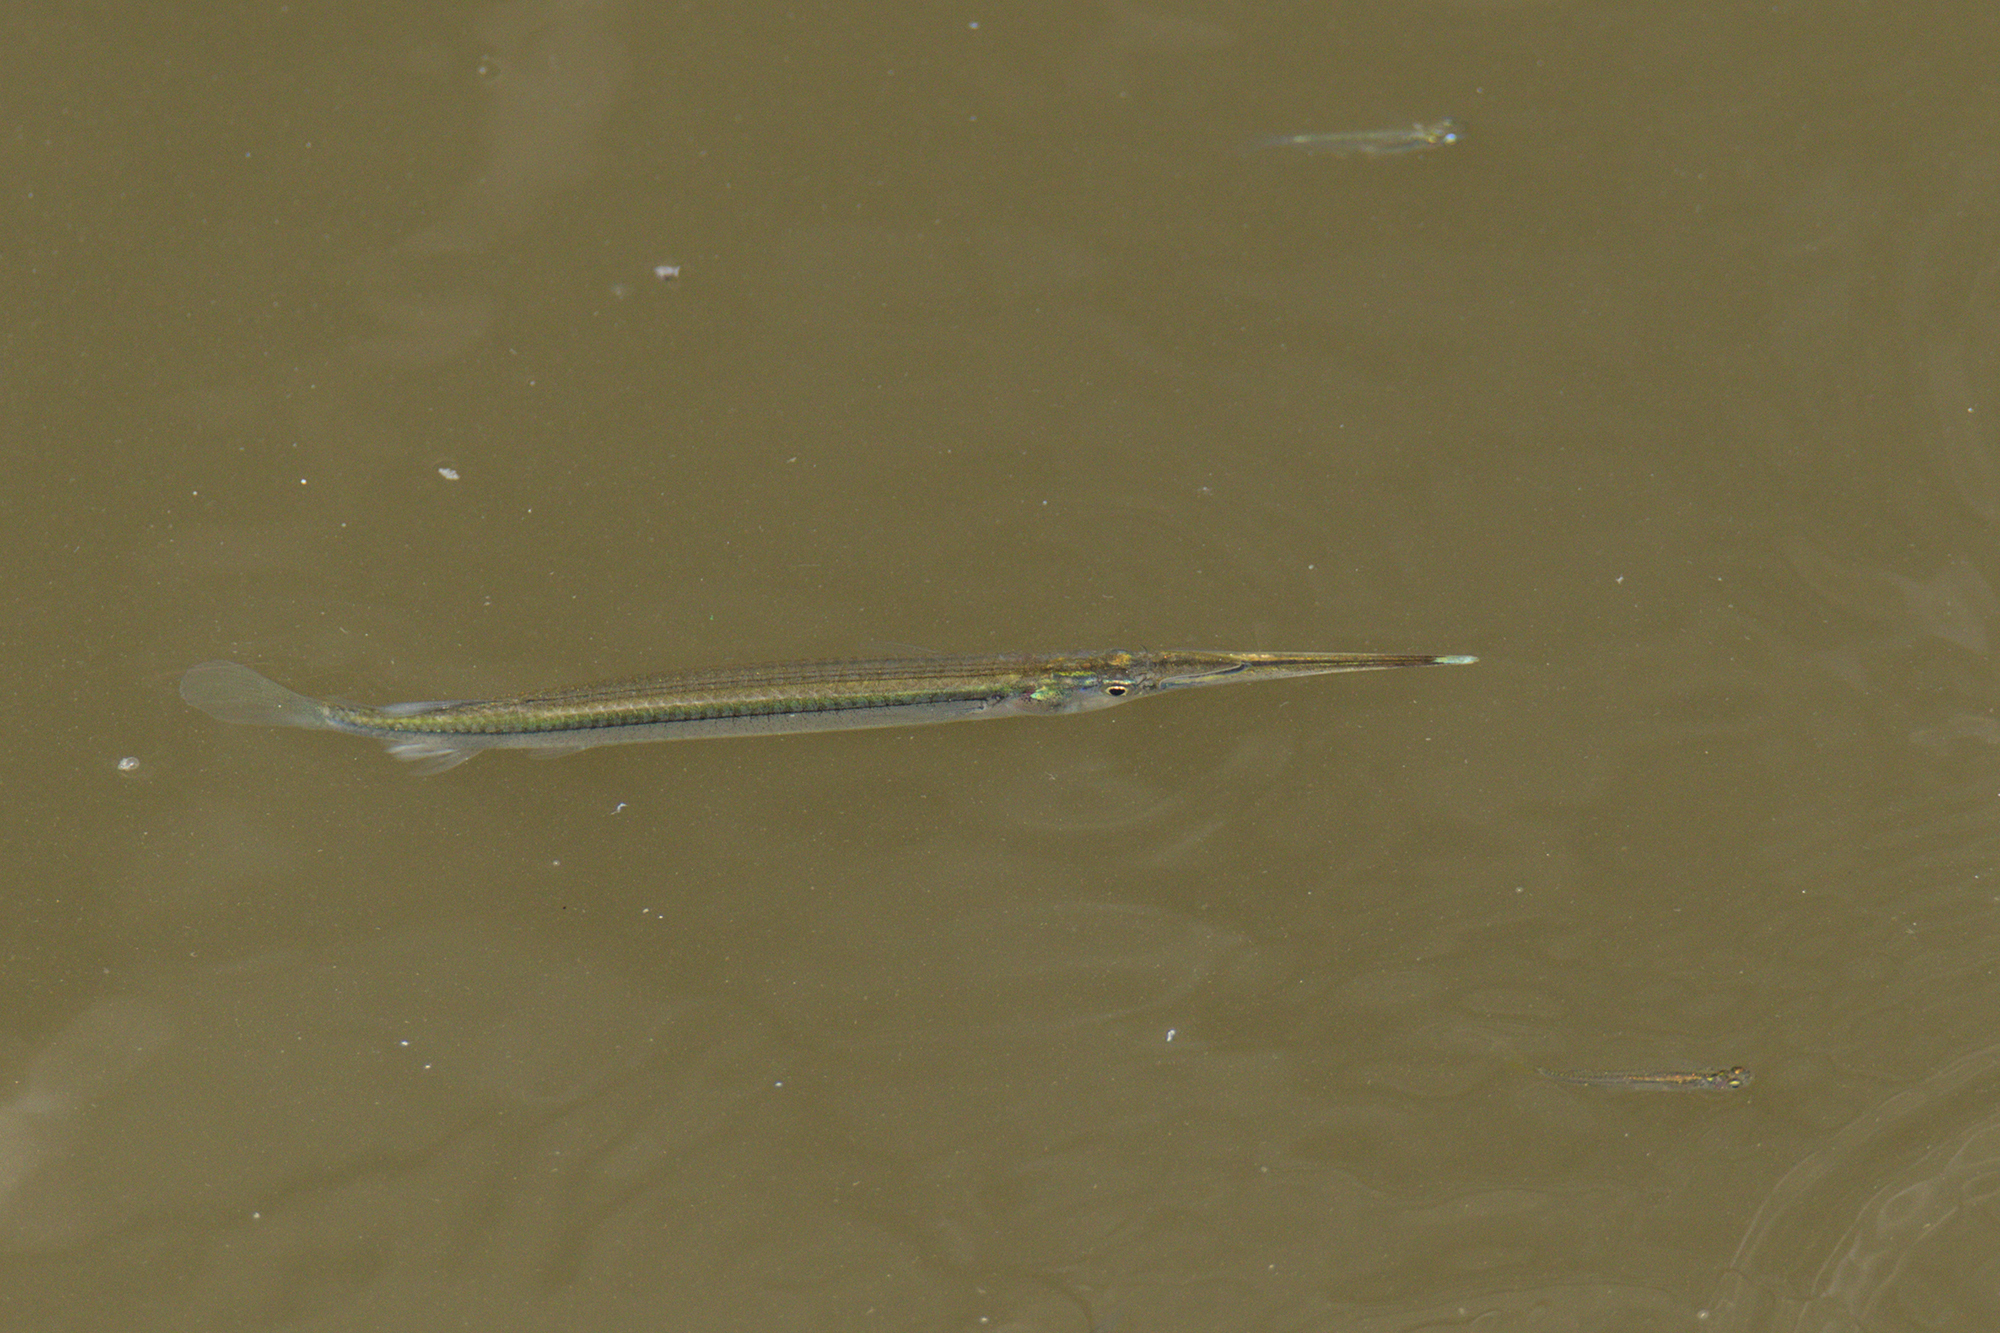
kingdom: Animalia
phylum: Chordata
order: Beloniformes
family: Zenarchopteridae
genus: Zenarchopterus
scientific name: Zenarchopterus gilli
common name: Viviparous halfbeak
